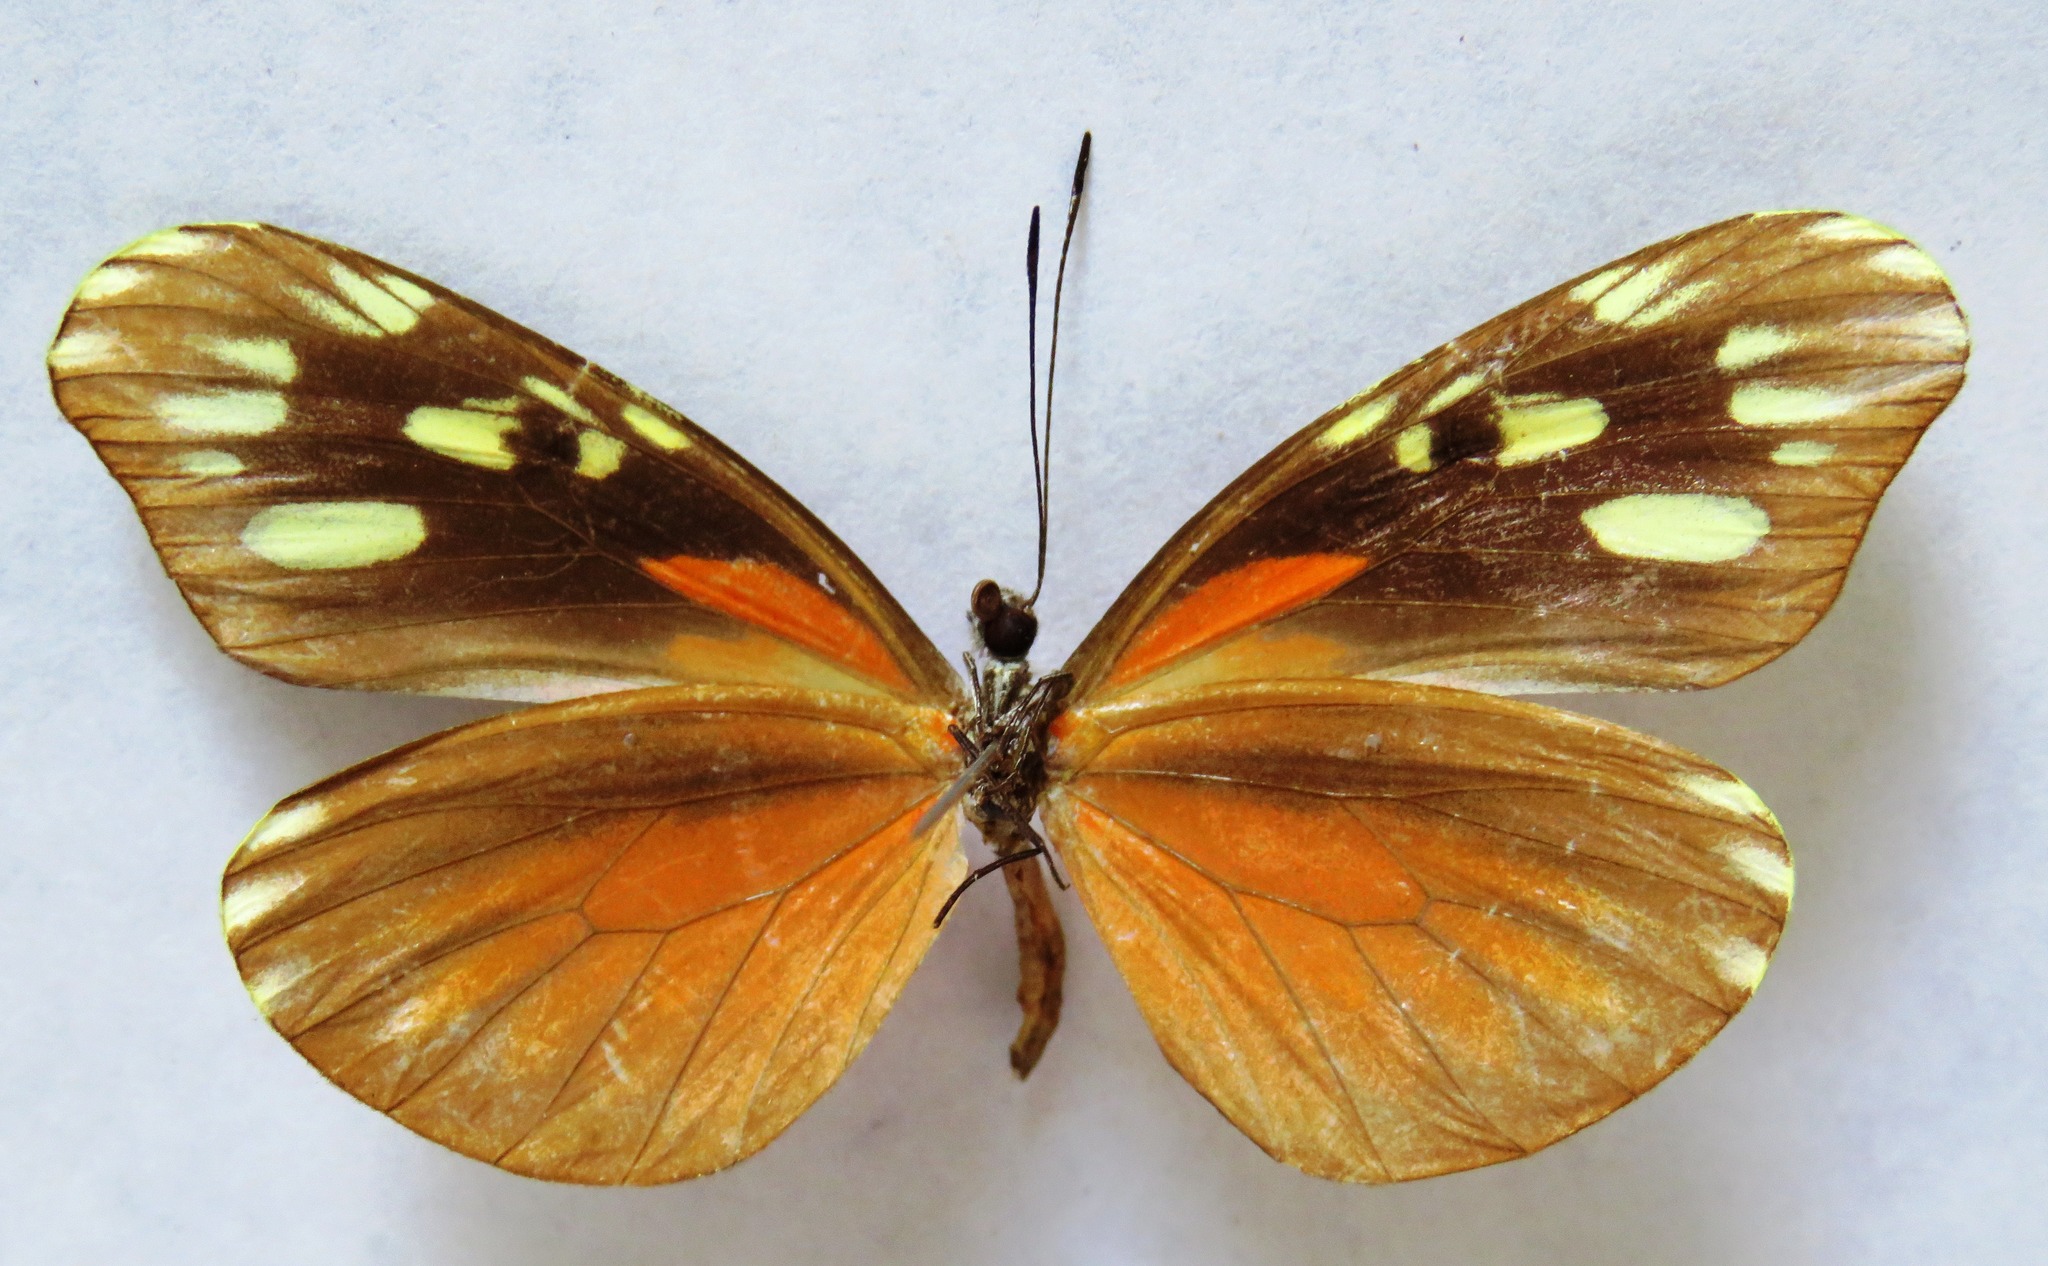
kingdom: Animalia
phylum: Arthropoda
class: Insecta
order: Lepidoptera
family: Pieridae
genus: Dismorphia
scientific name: Dismorphia eunoe
